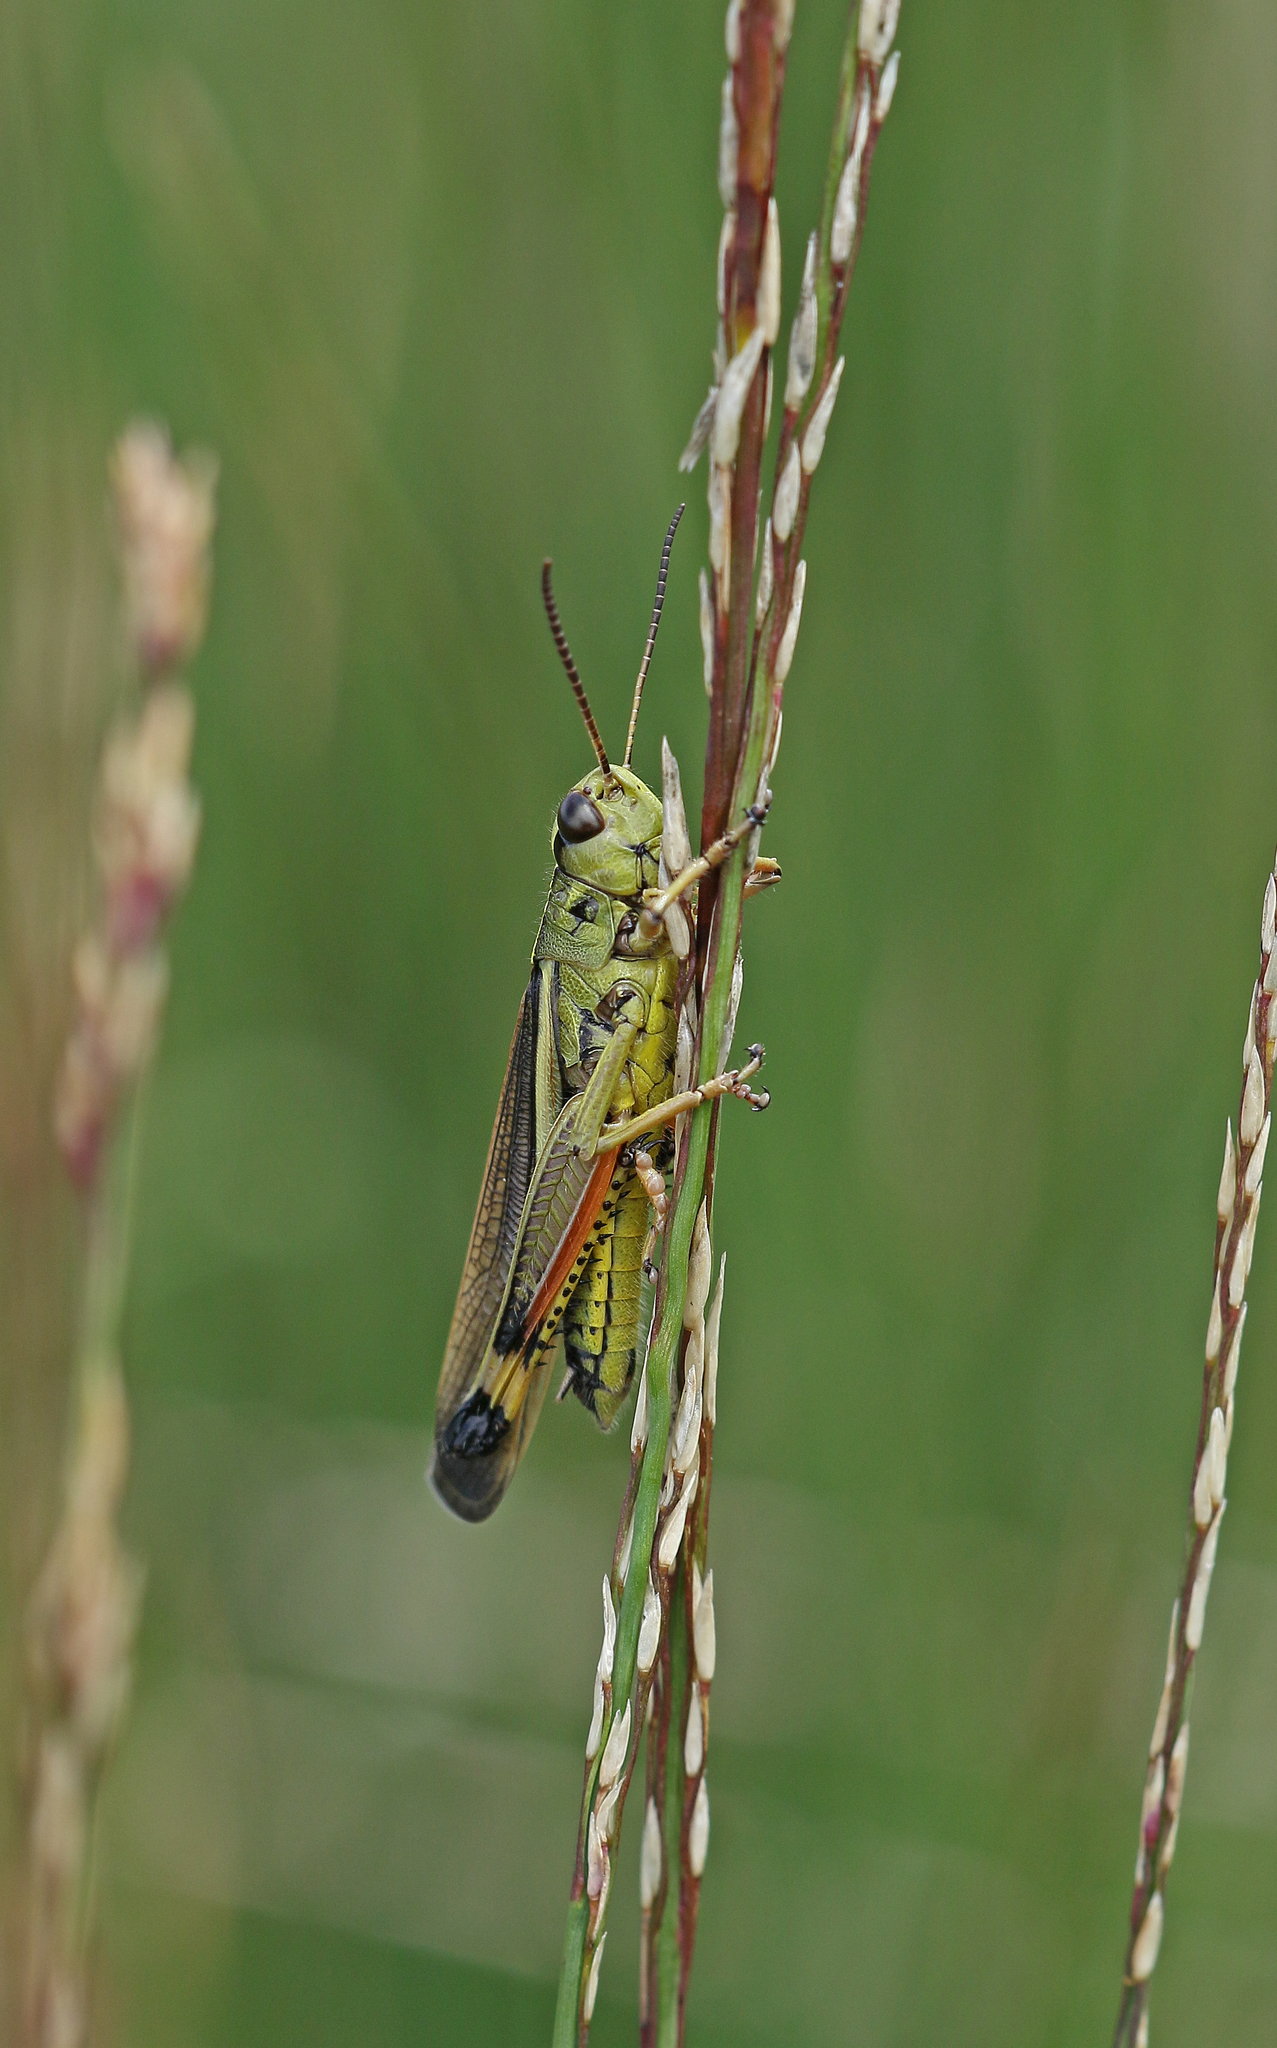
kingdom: Animalia
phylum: Arthropoda
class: Insecta
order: Orthoptera
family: Acrididae
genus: Stethophyma
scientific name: Stethophyma grossum
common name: Large marsh grasshopper
